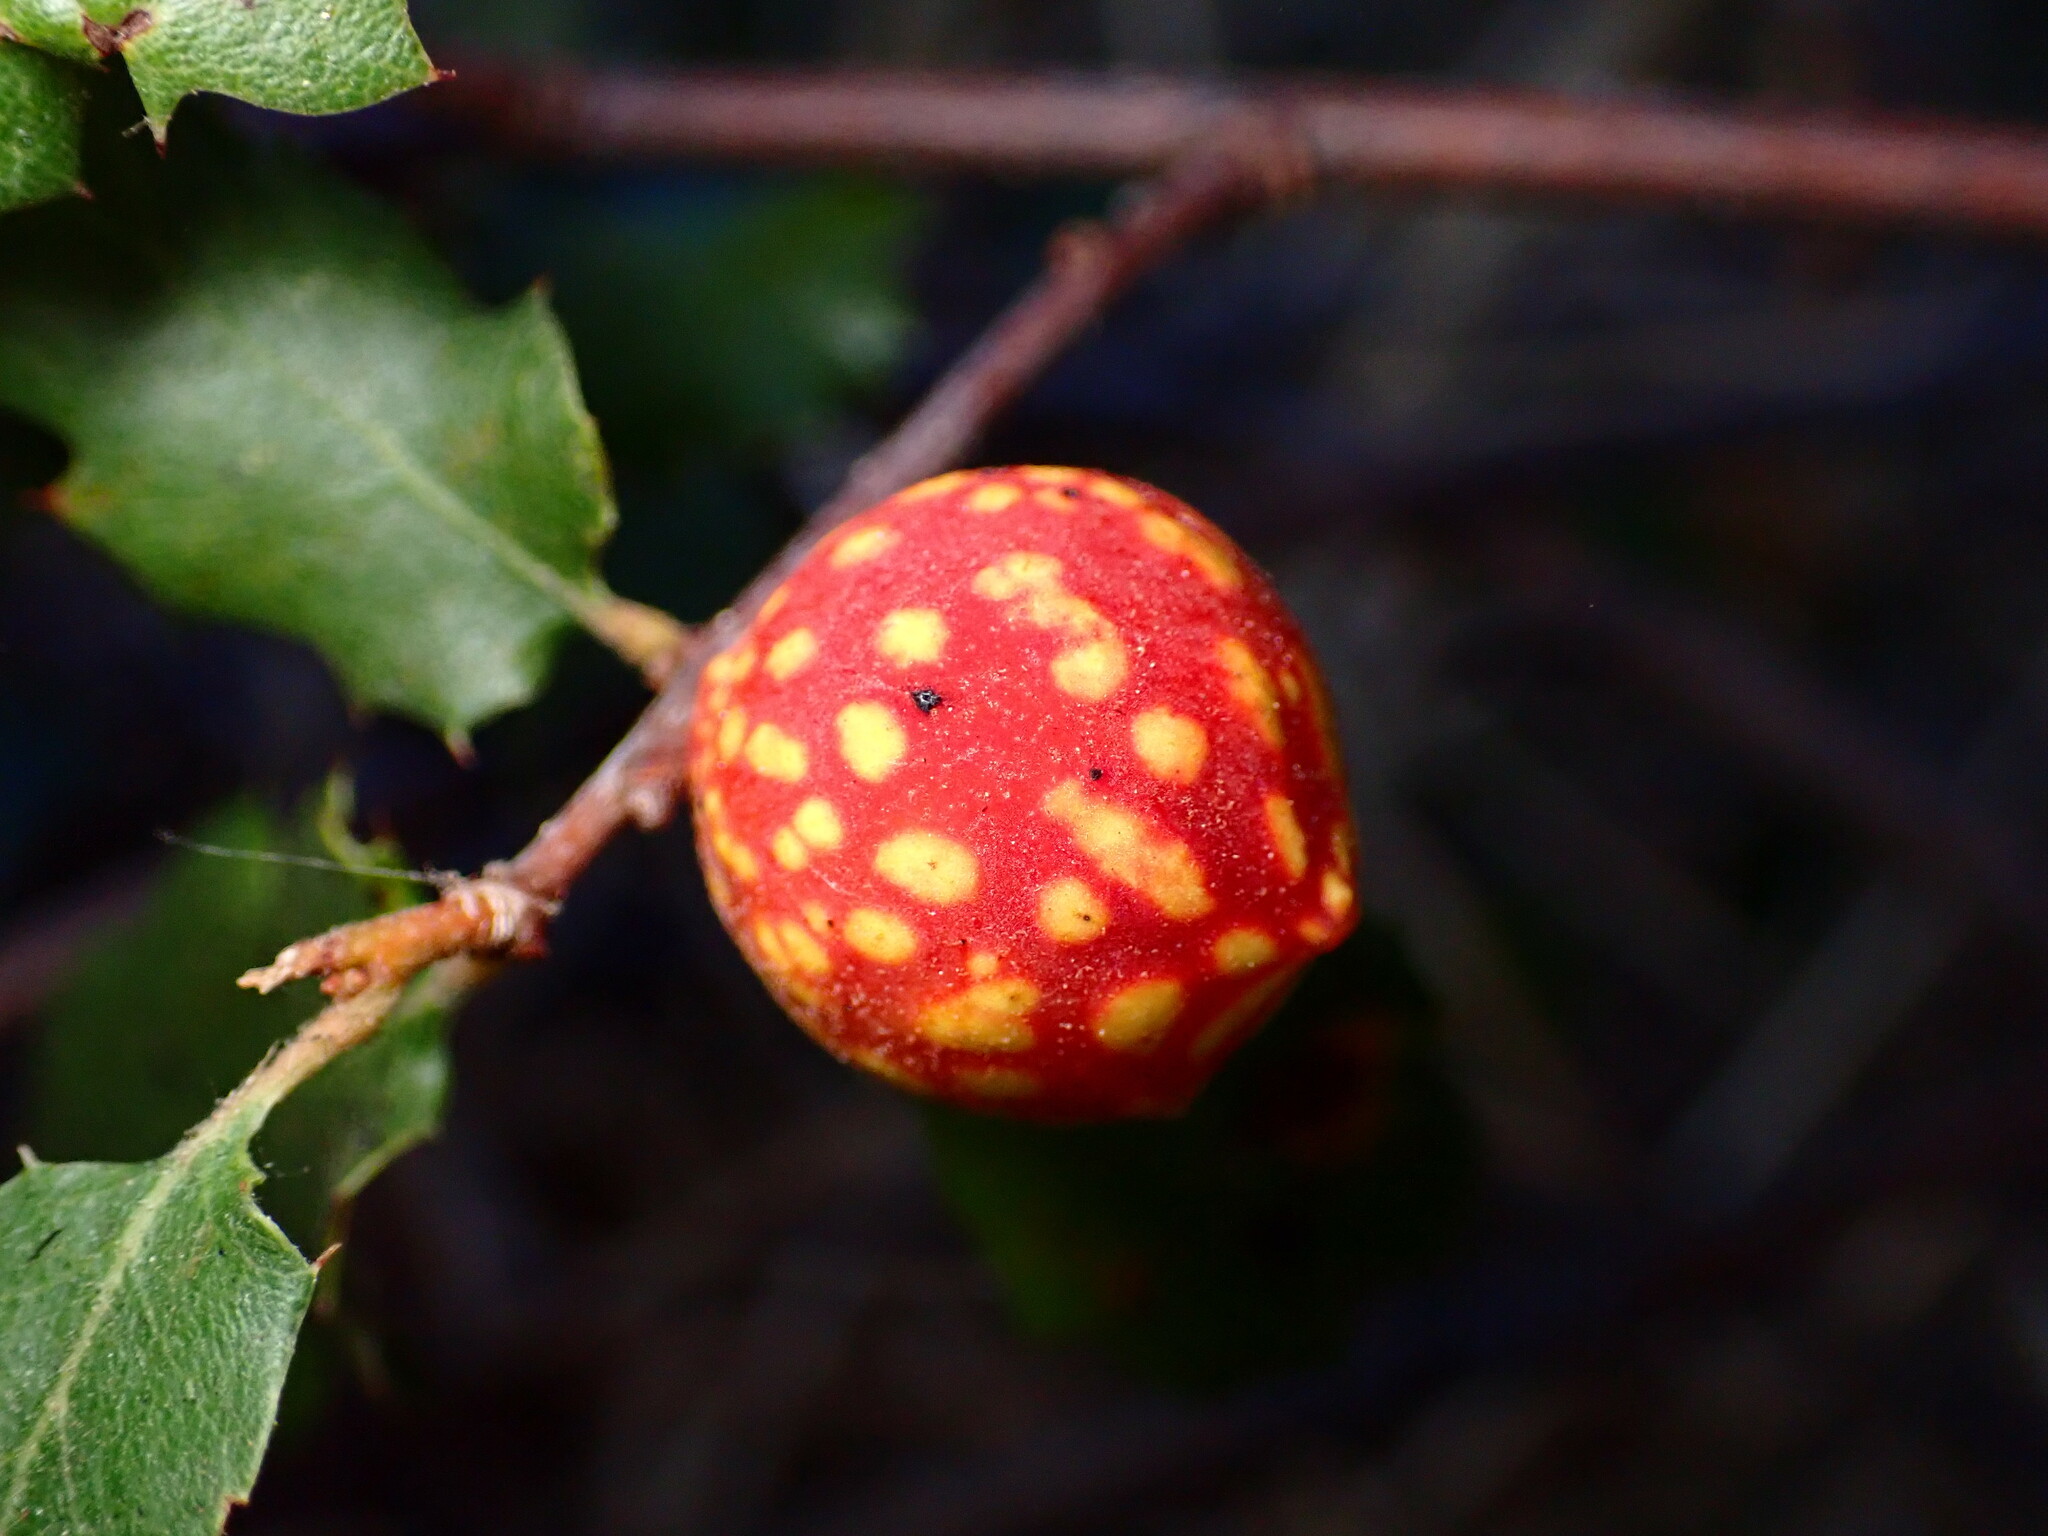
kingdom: Animalia
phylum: Arthropoda
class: Insecta
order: Hymenoptera
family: Cynipidae
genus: Burnettweldia
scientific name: Burnettweldia
